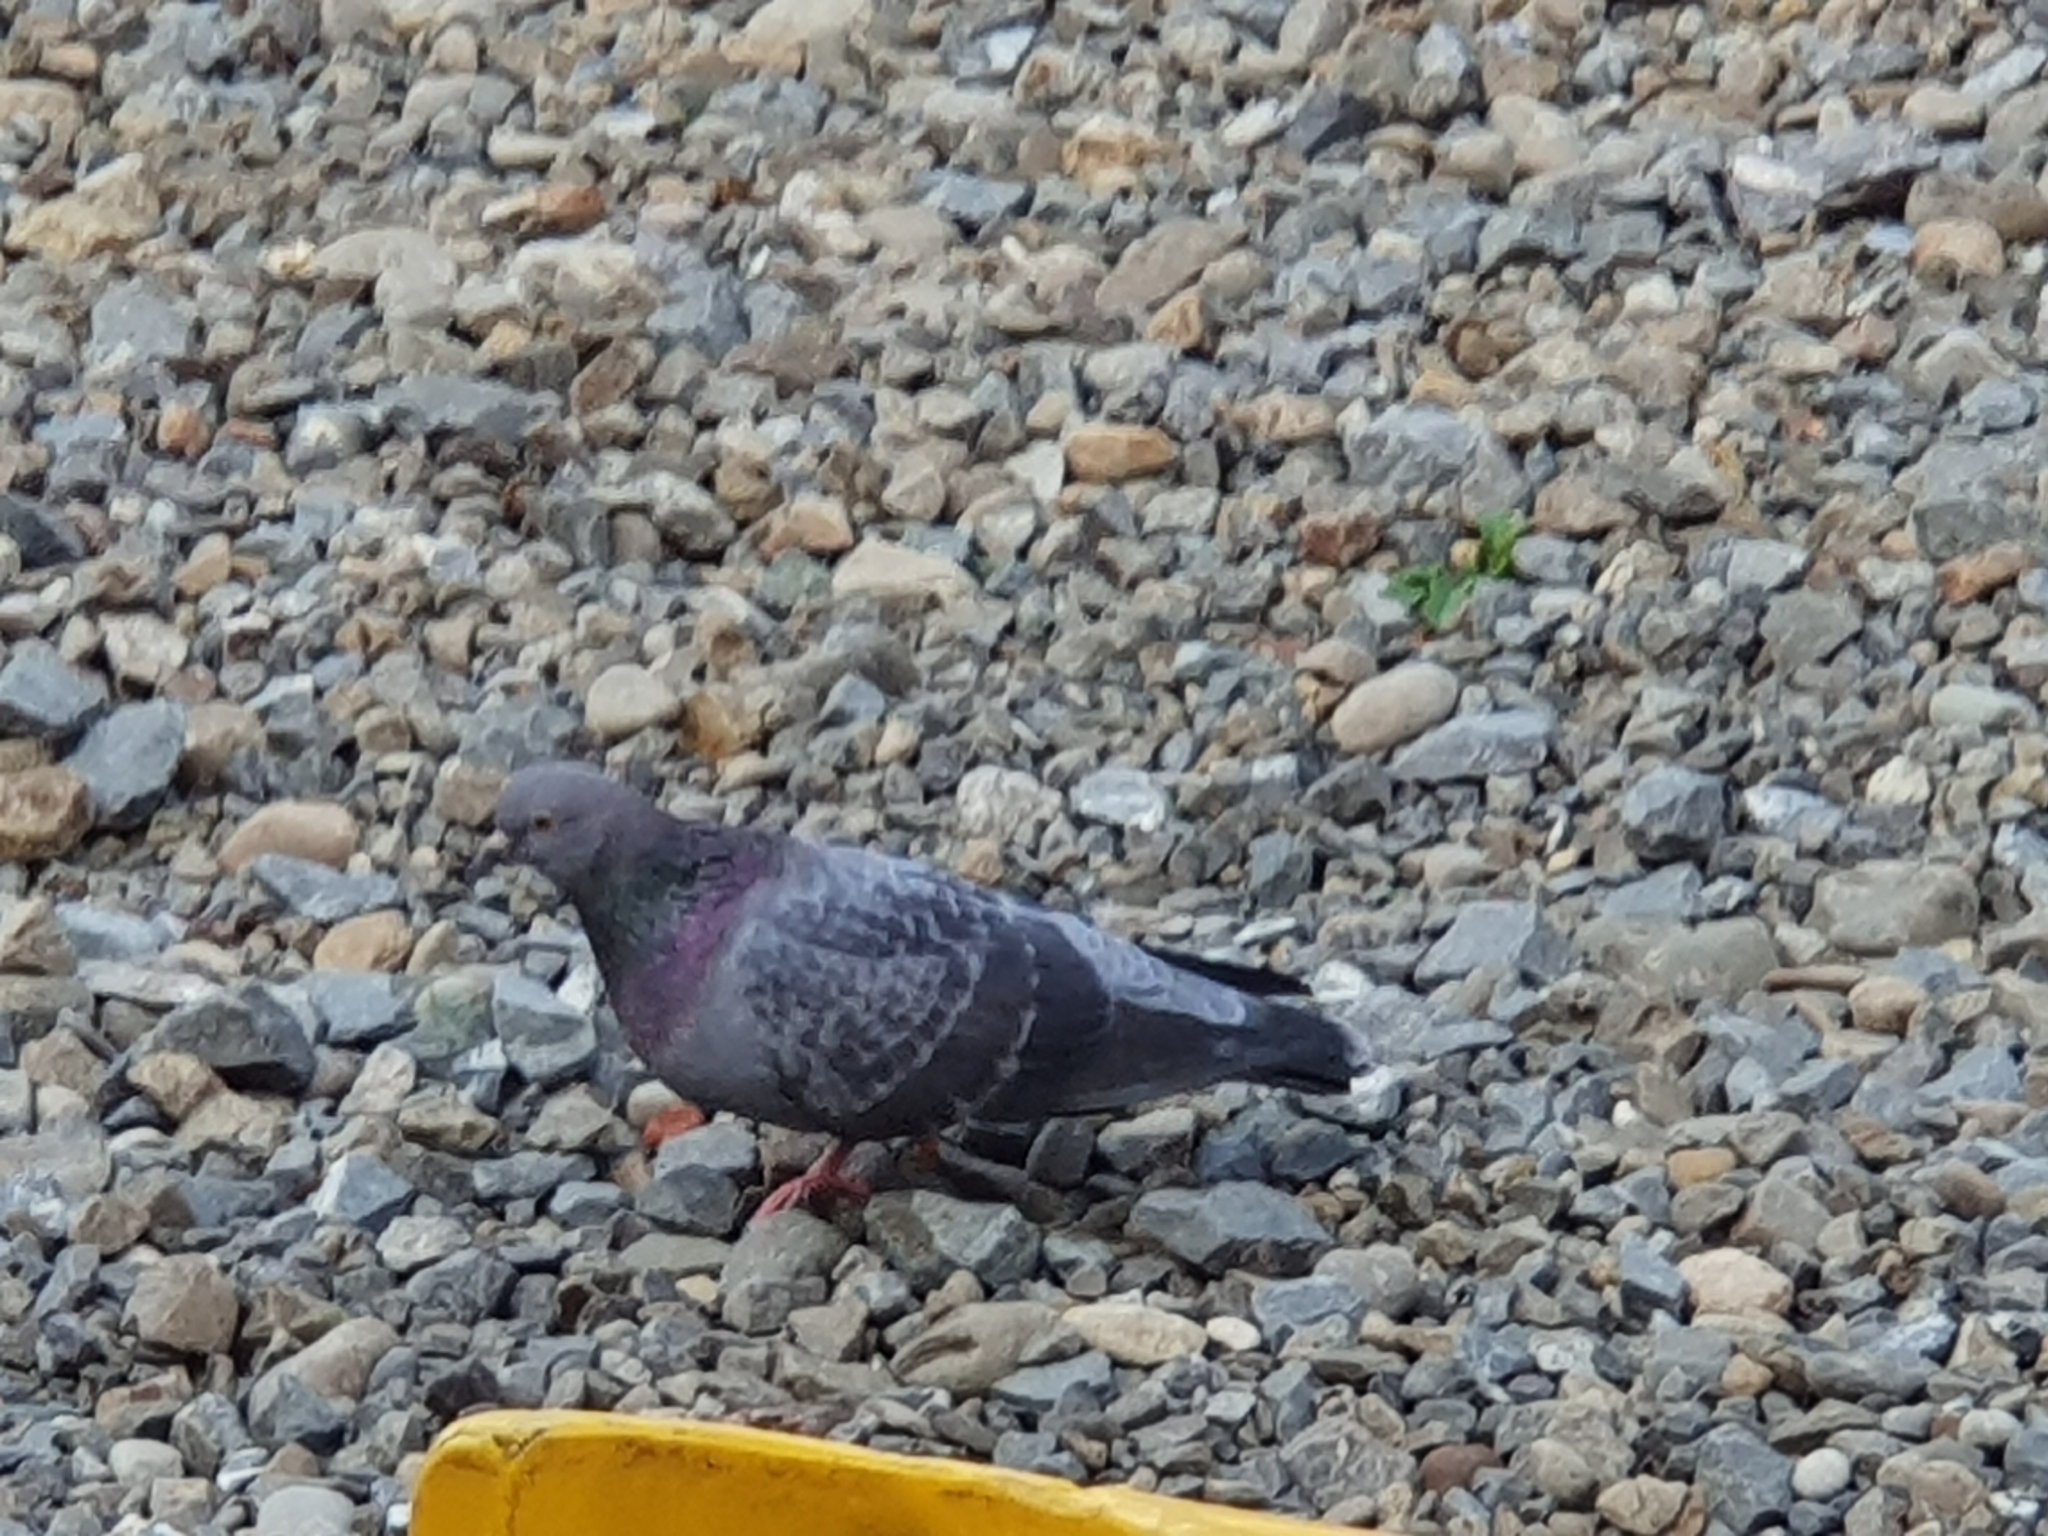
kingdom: Animalia
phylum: Chordata
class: Aves
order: Columbiformes
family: Columbidae
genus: Columba
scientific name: Columba livia
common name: Rock pigeon
